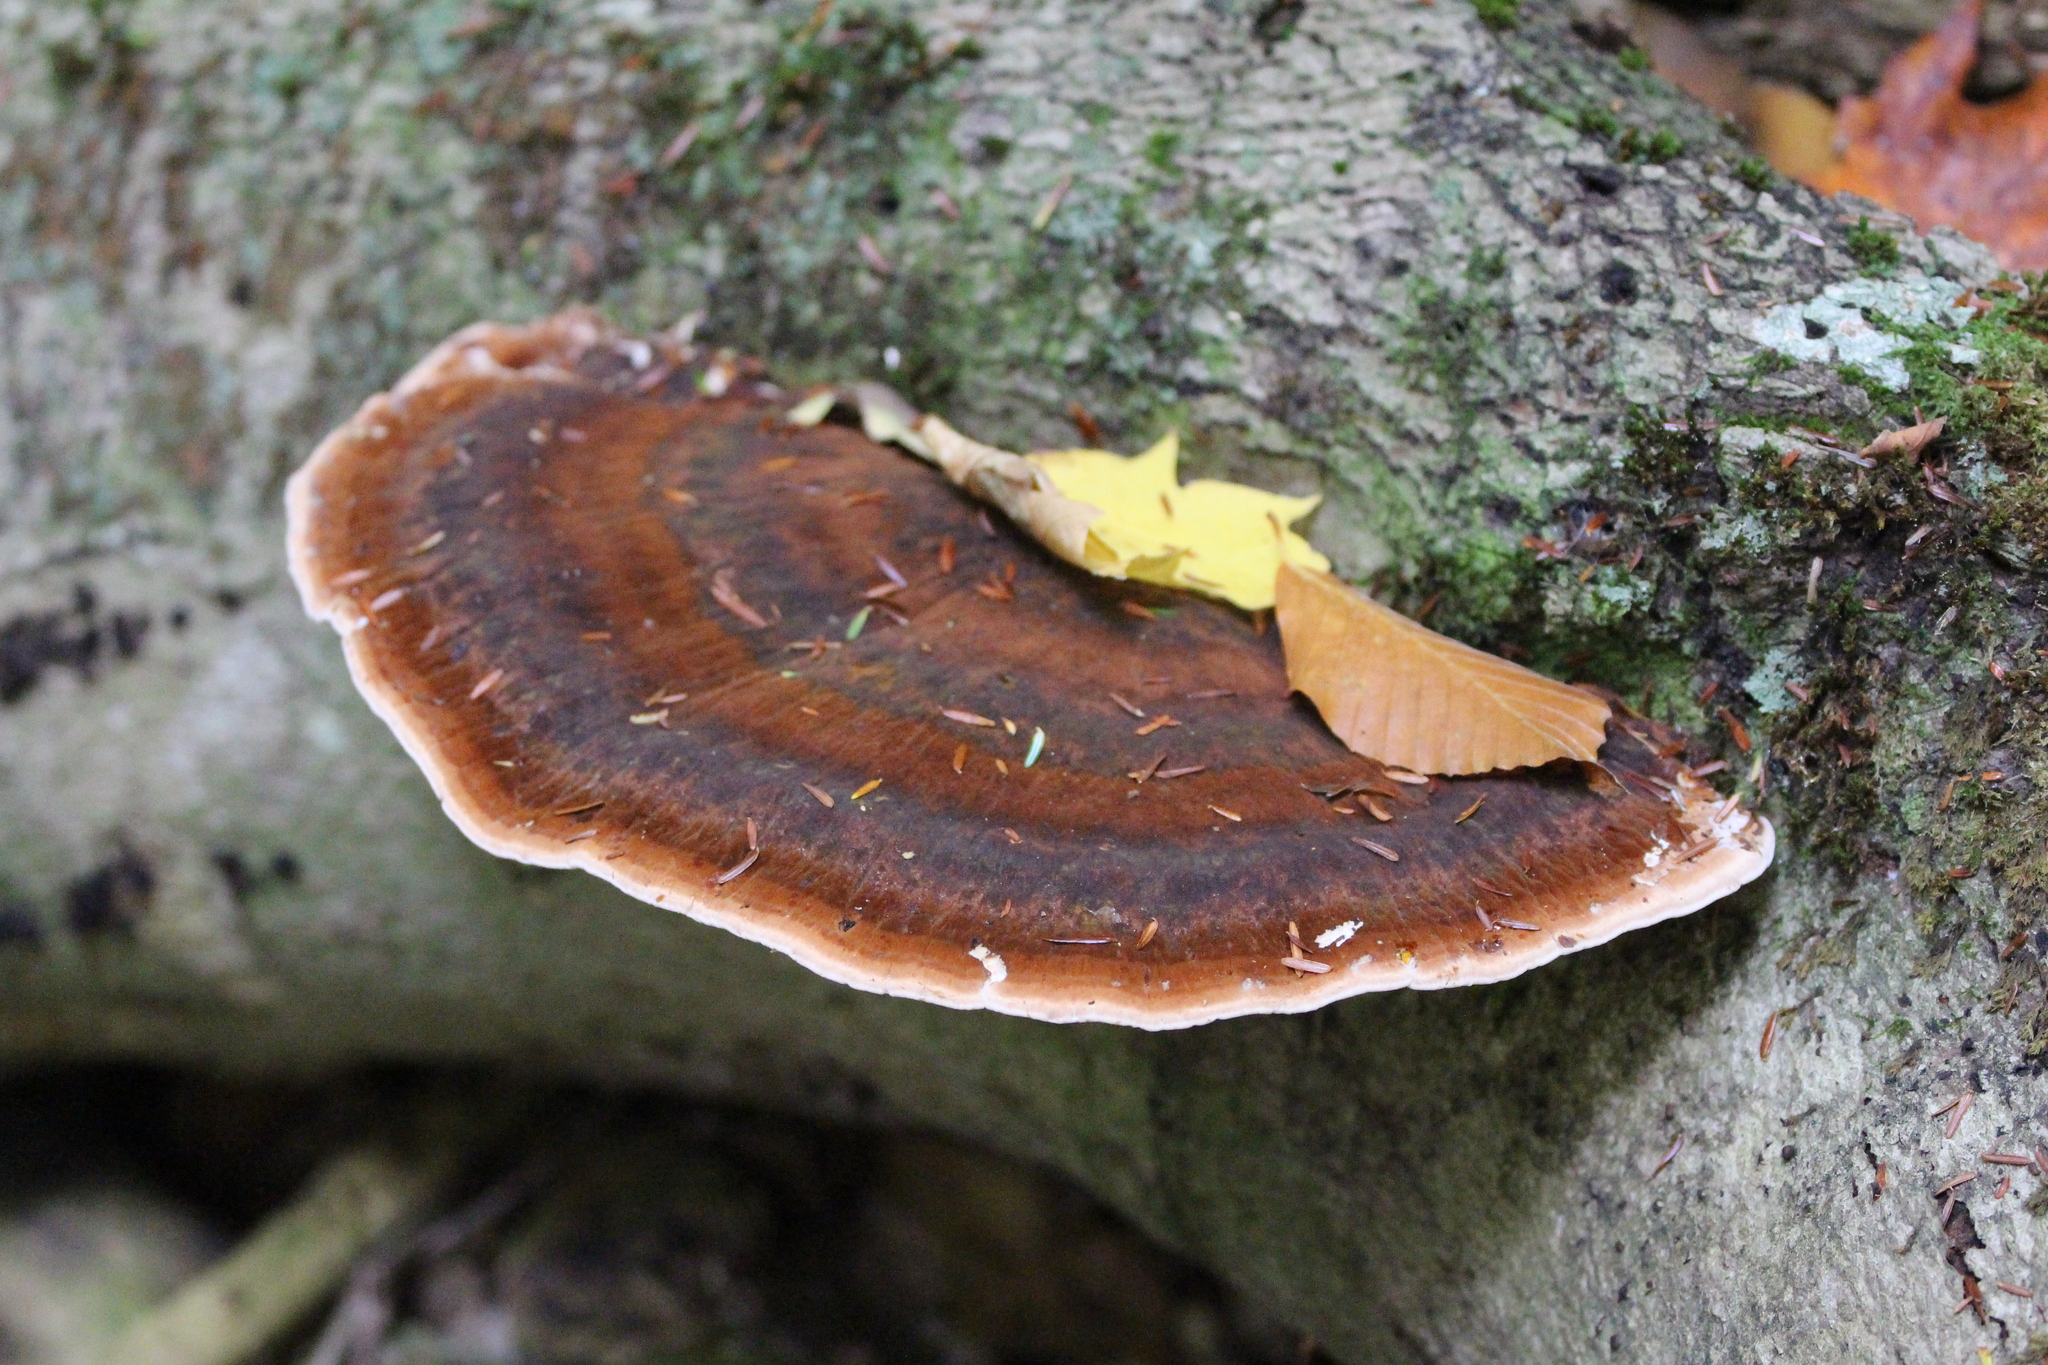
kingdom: Fungi
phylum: Basidiomycota
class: Agaricomycetes
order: Polyporales
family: Ischnodermataceae
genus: Ischnoderma
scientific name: Ischnoderma resinosum
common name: Resinous polypore
